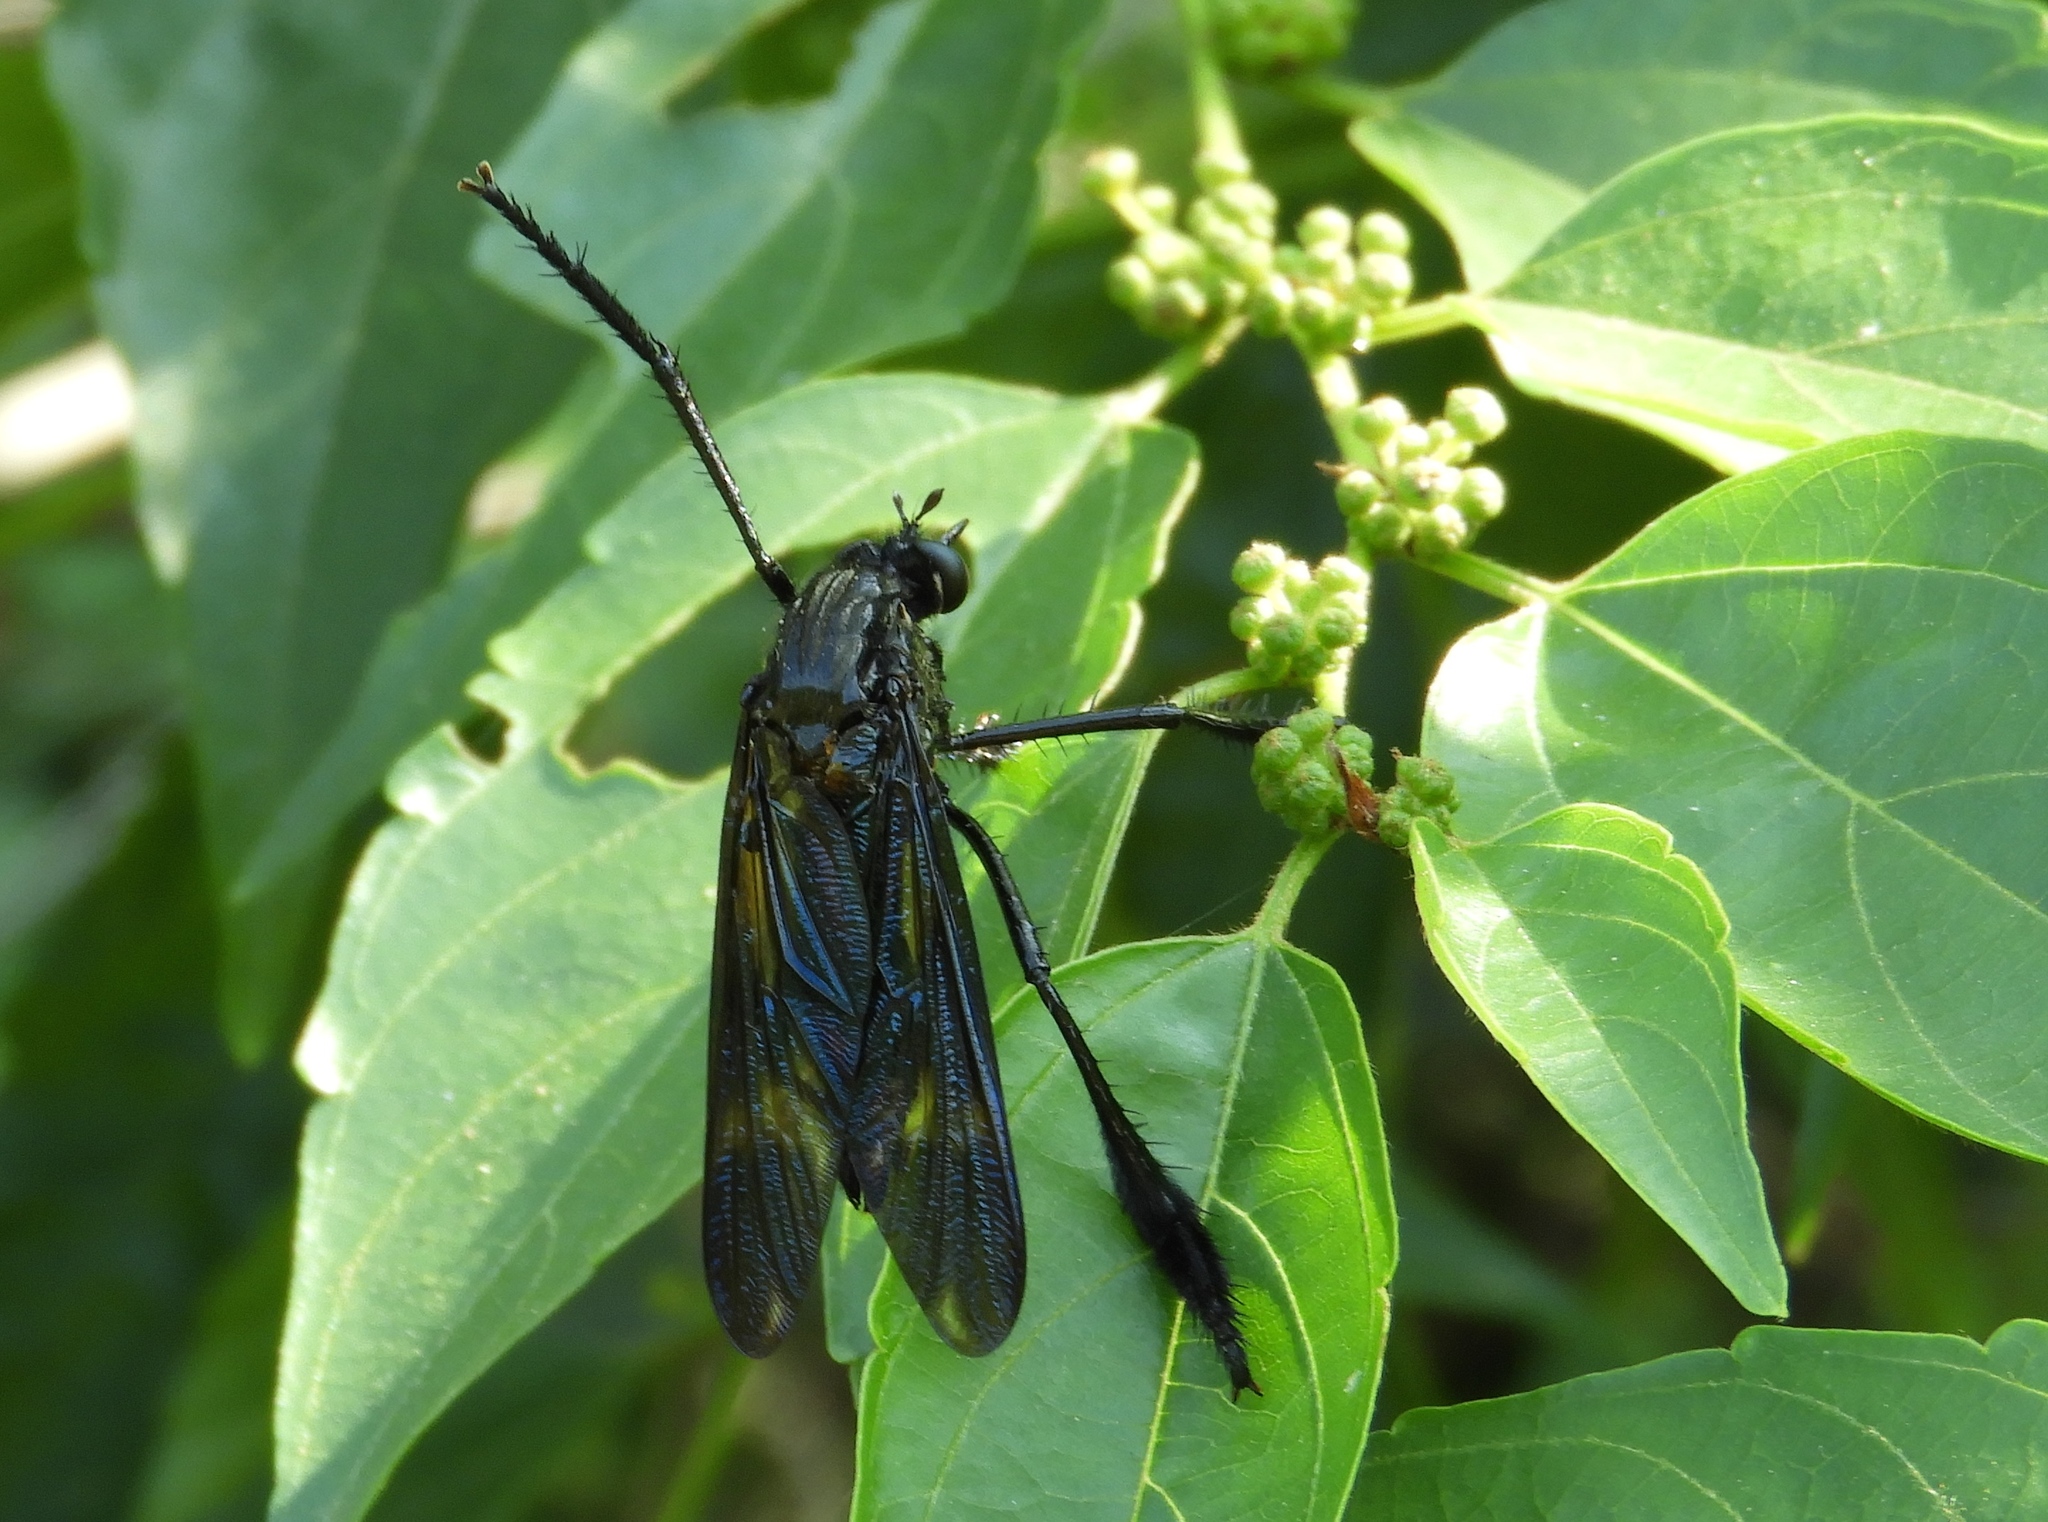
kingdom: Animalia
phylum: Arthropoda
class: Insecta
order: Diptera
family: Asilidae
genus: Pseudorus
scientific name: Pseudorus
